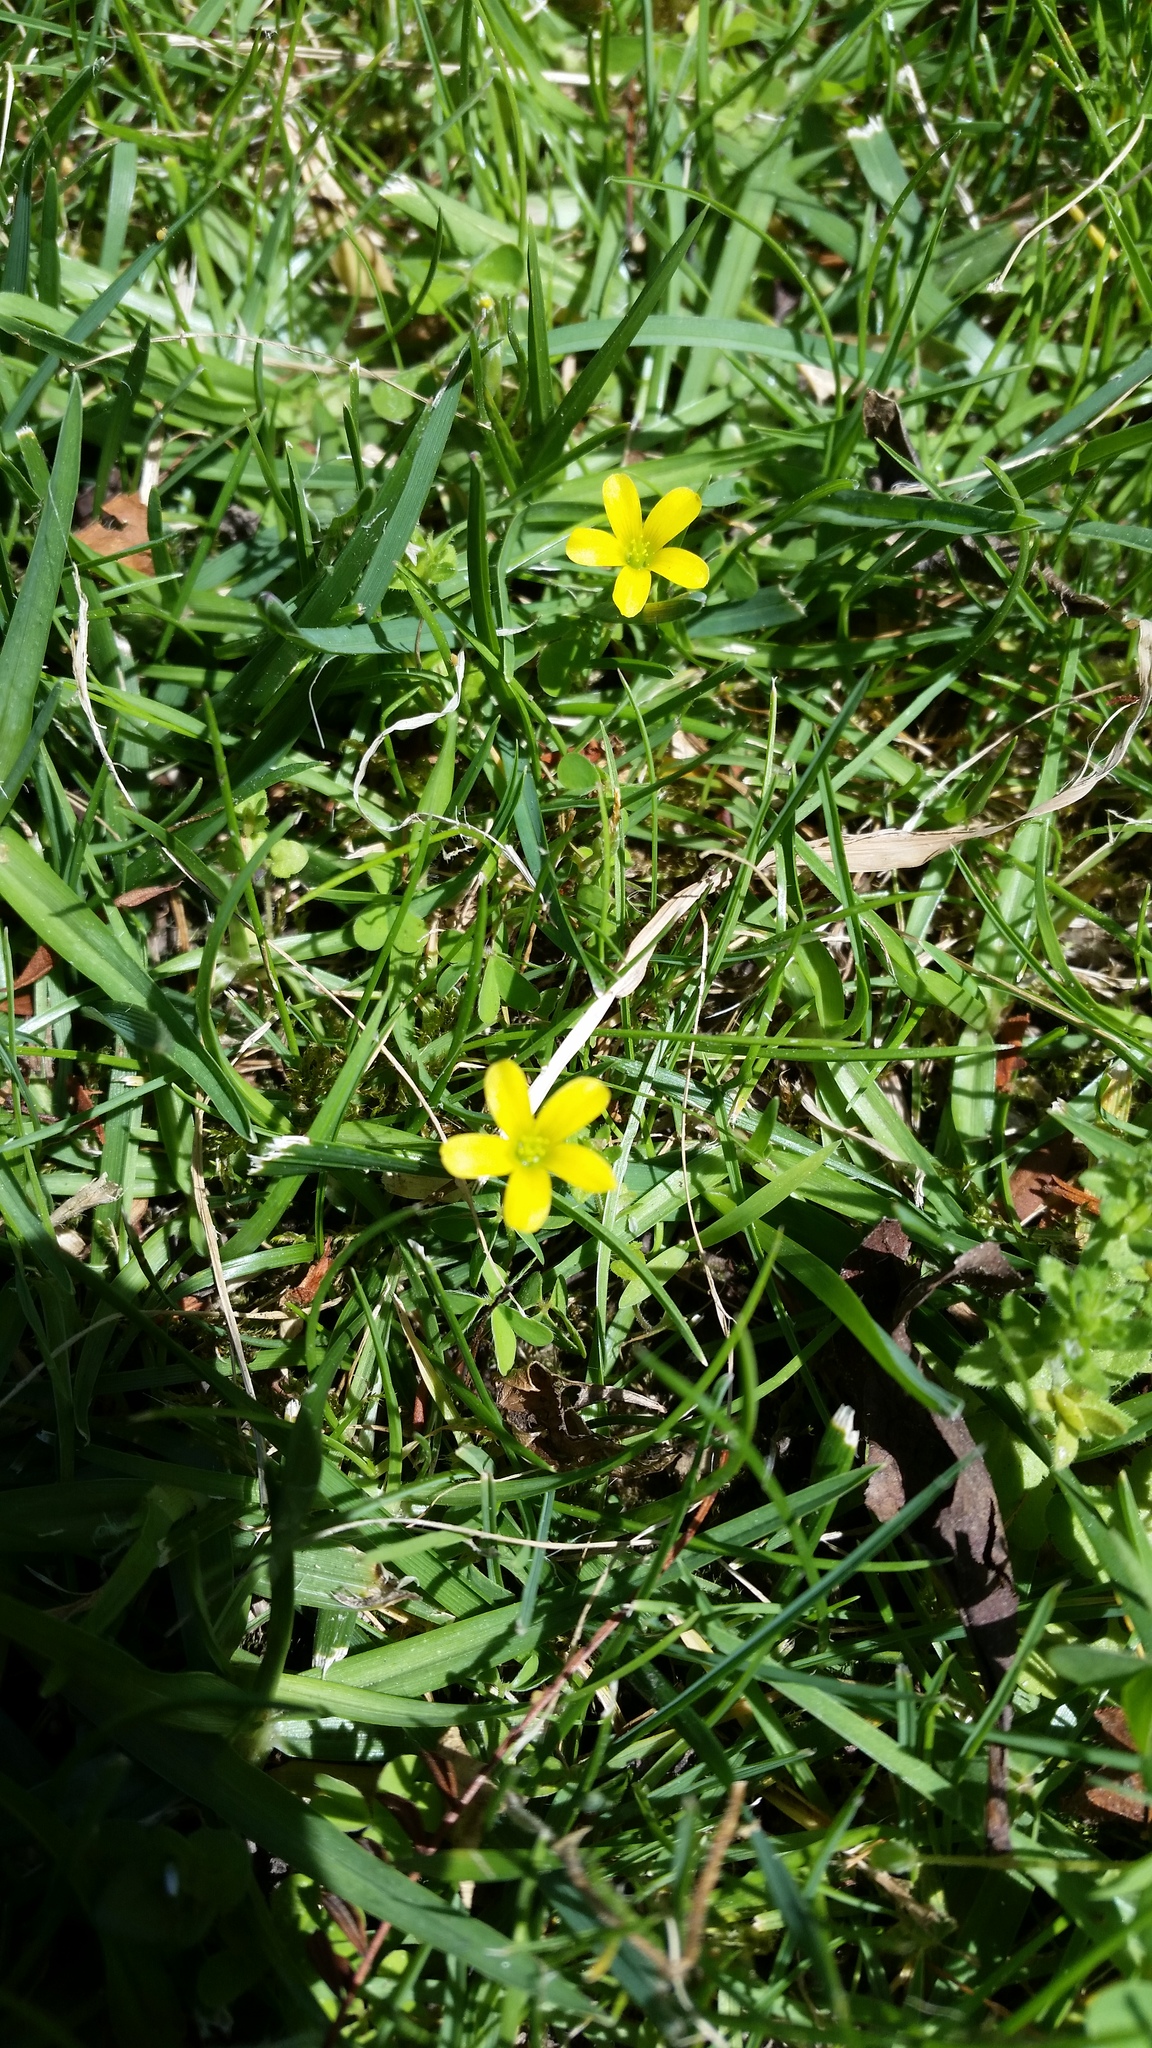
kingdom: Plantae
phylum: Tracheophyta
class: Magnoliopsida
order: Oxalidales
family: Oxalidaceae
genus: Oxalis
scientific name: Oxalis corniculata
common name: Procumbent yellow-sorrel
